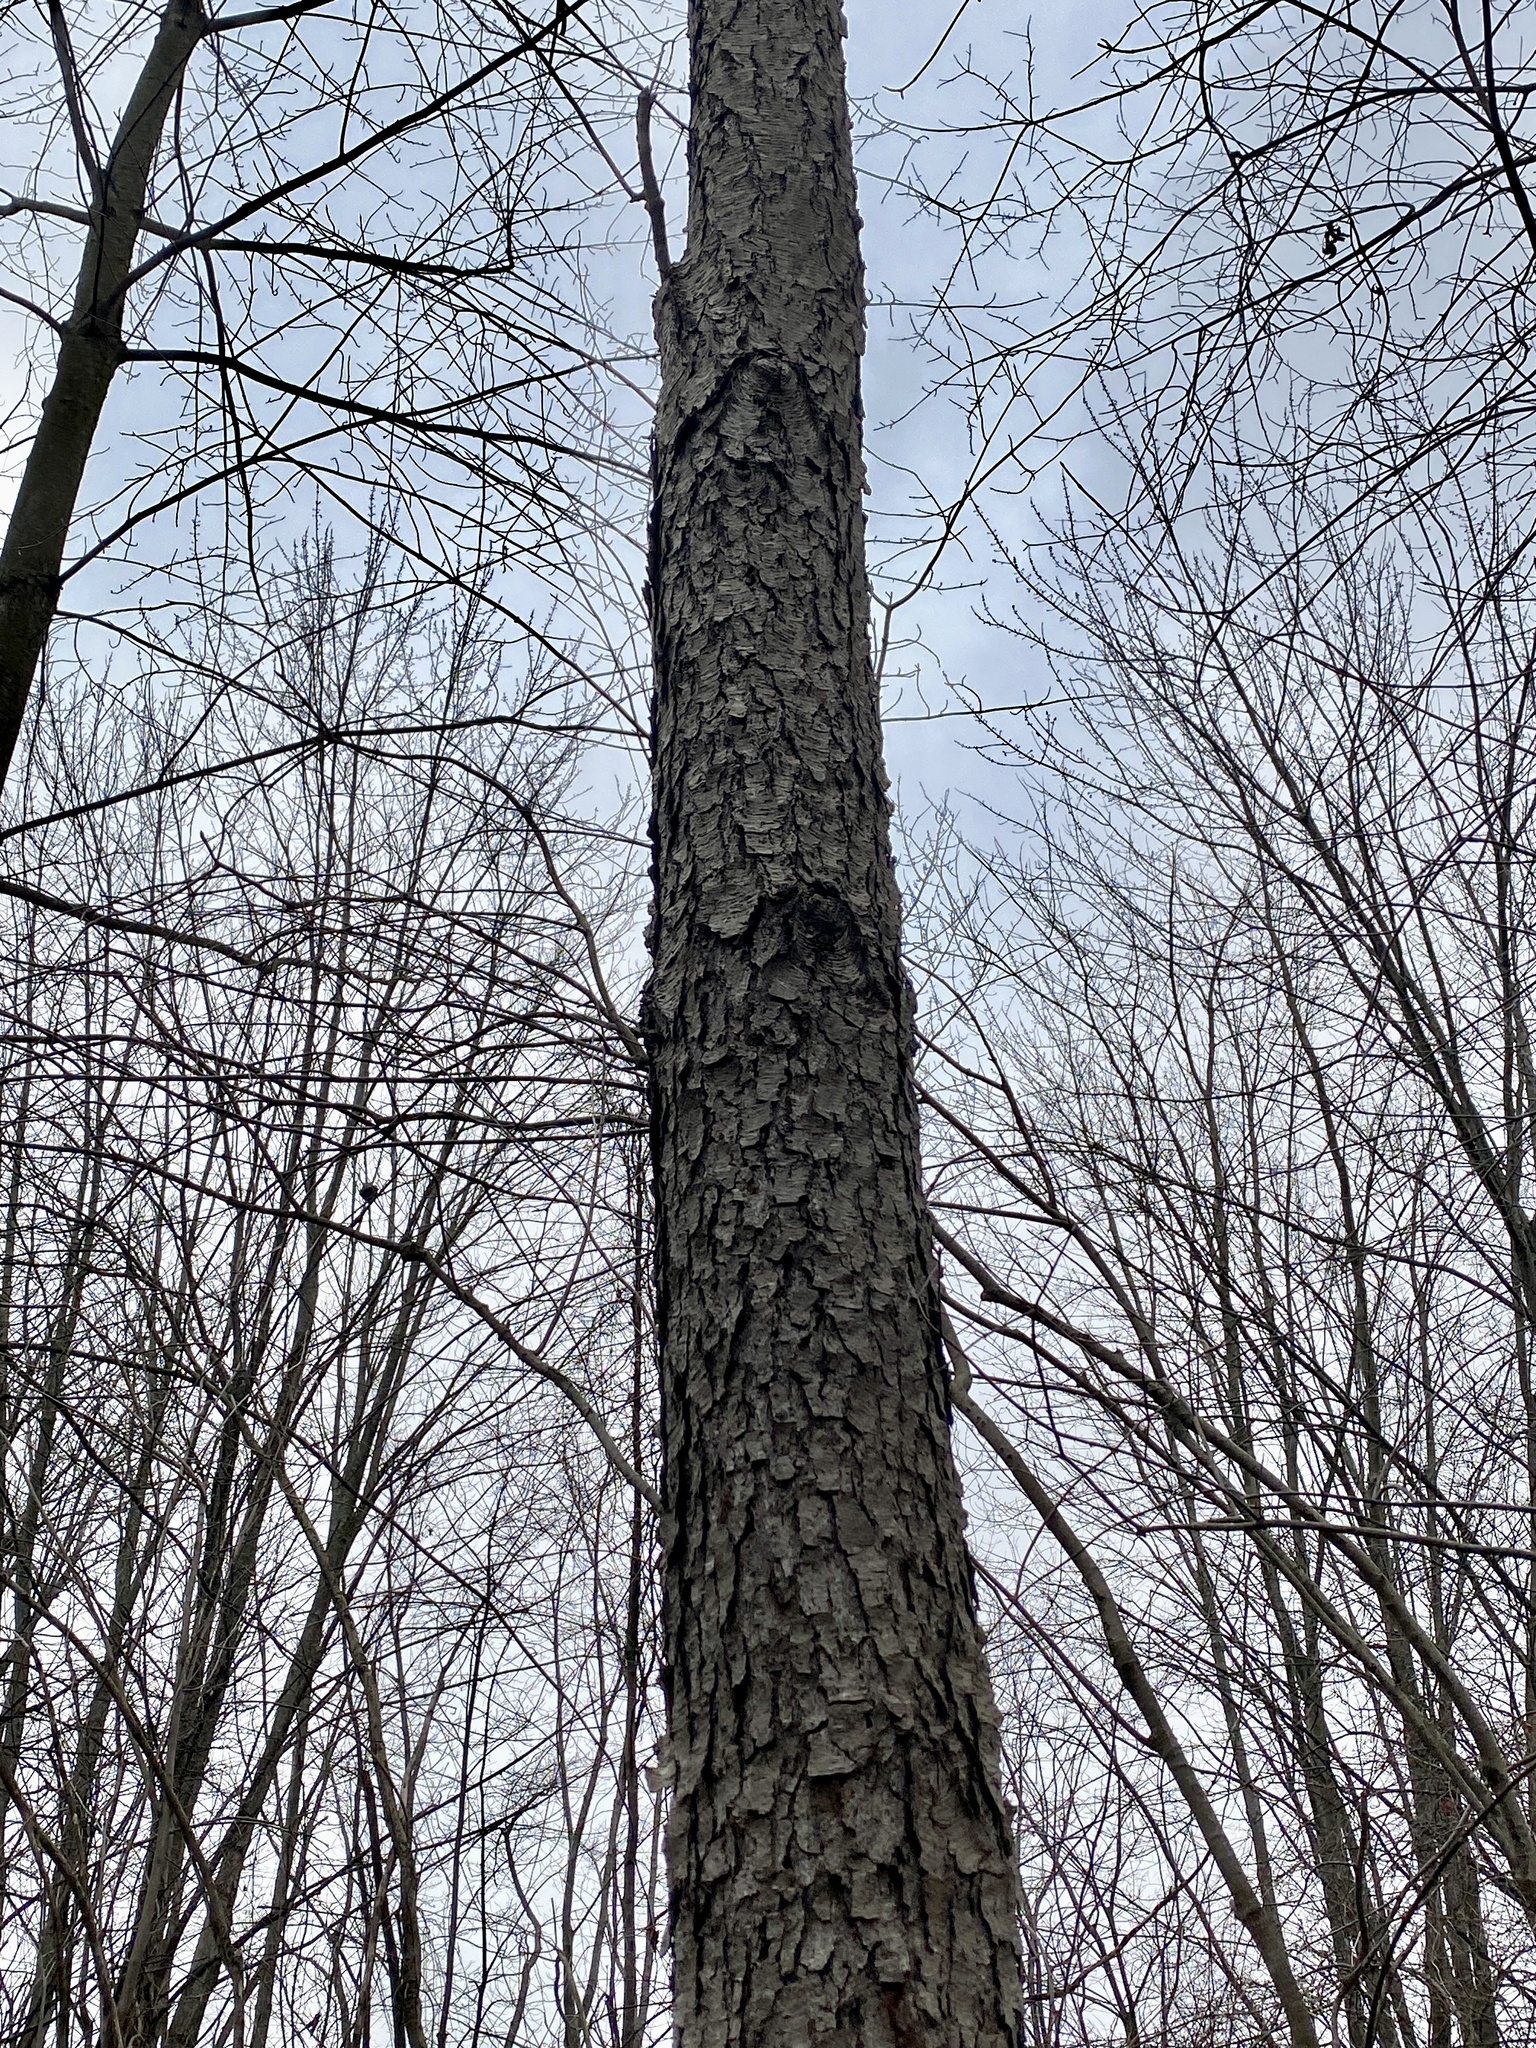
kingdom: Plantae
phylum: Tracheophyta
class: Magnoliopsida
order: Rosales
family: Rosaceae
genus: Prunus
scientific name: Prunus serotina
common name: Black cherry
